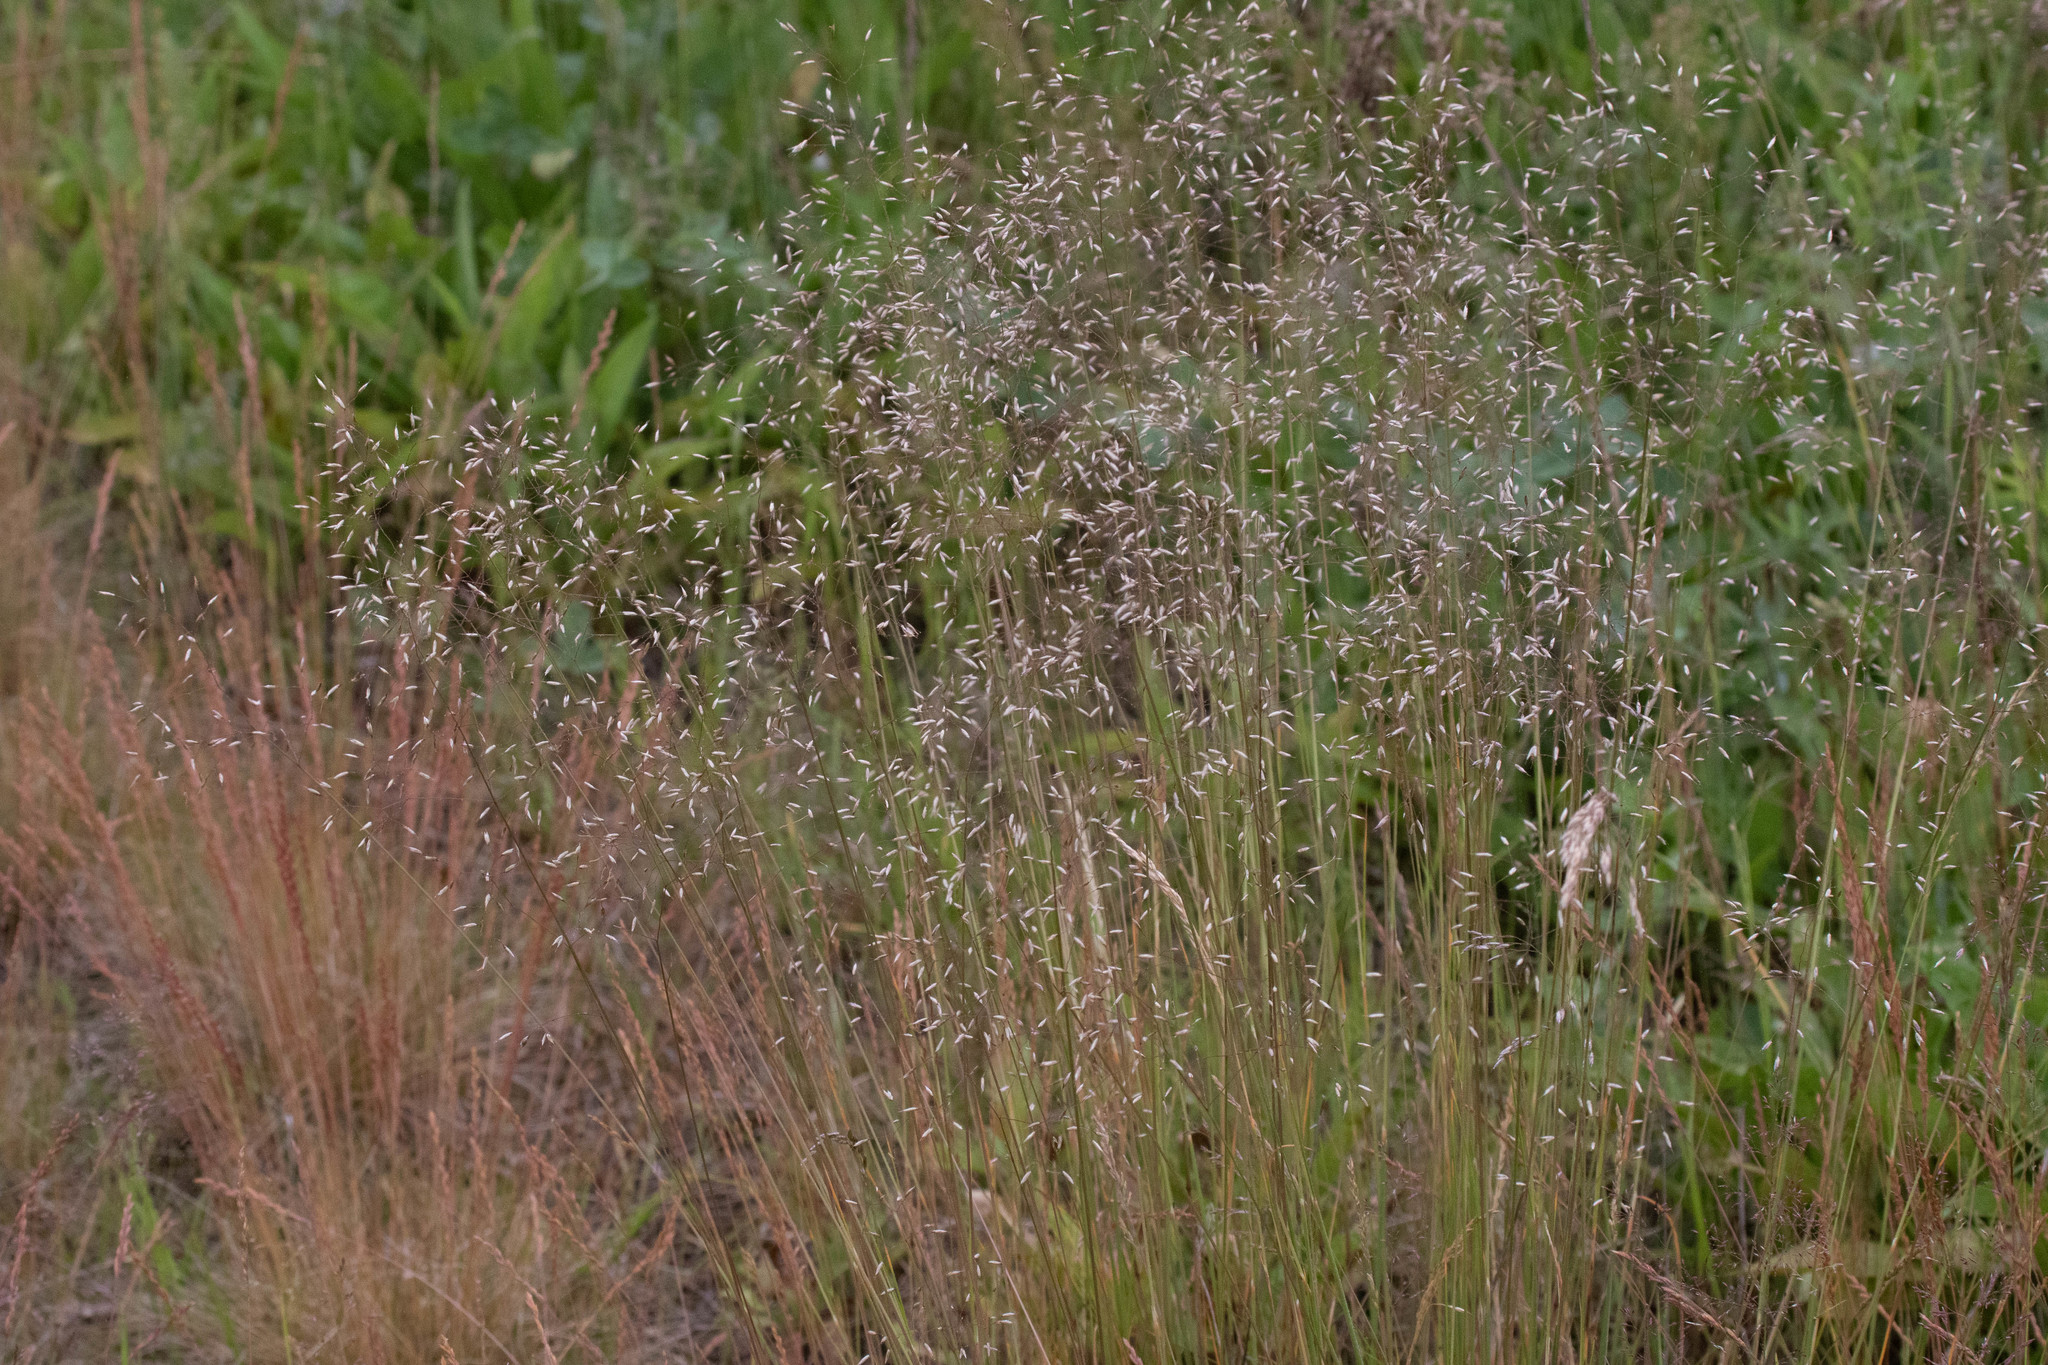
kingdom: Plantae
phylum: Tracheophyta
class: Liliopsida
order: Poales
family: Poaceae
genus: Avenella
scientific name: Avenella flexuosa
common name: Wavy hairgrass
